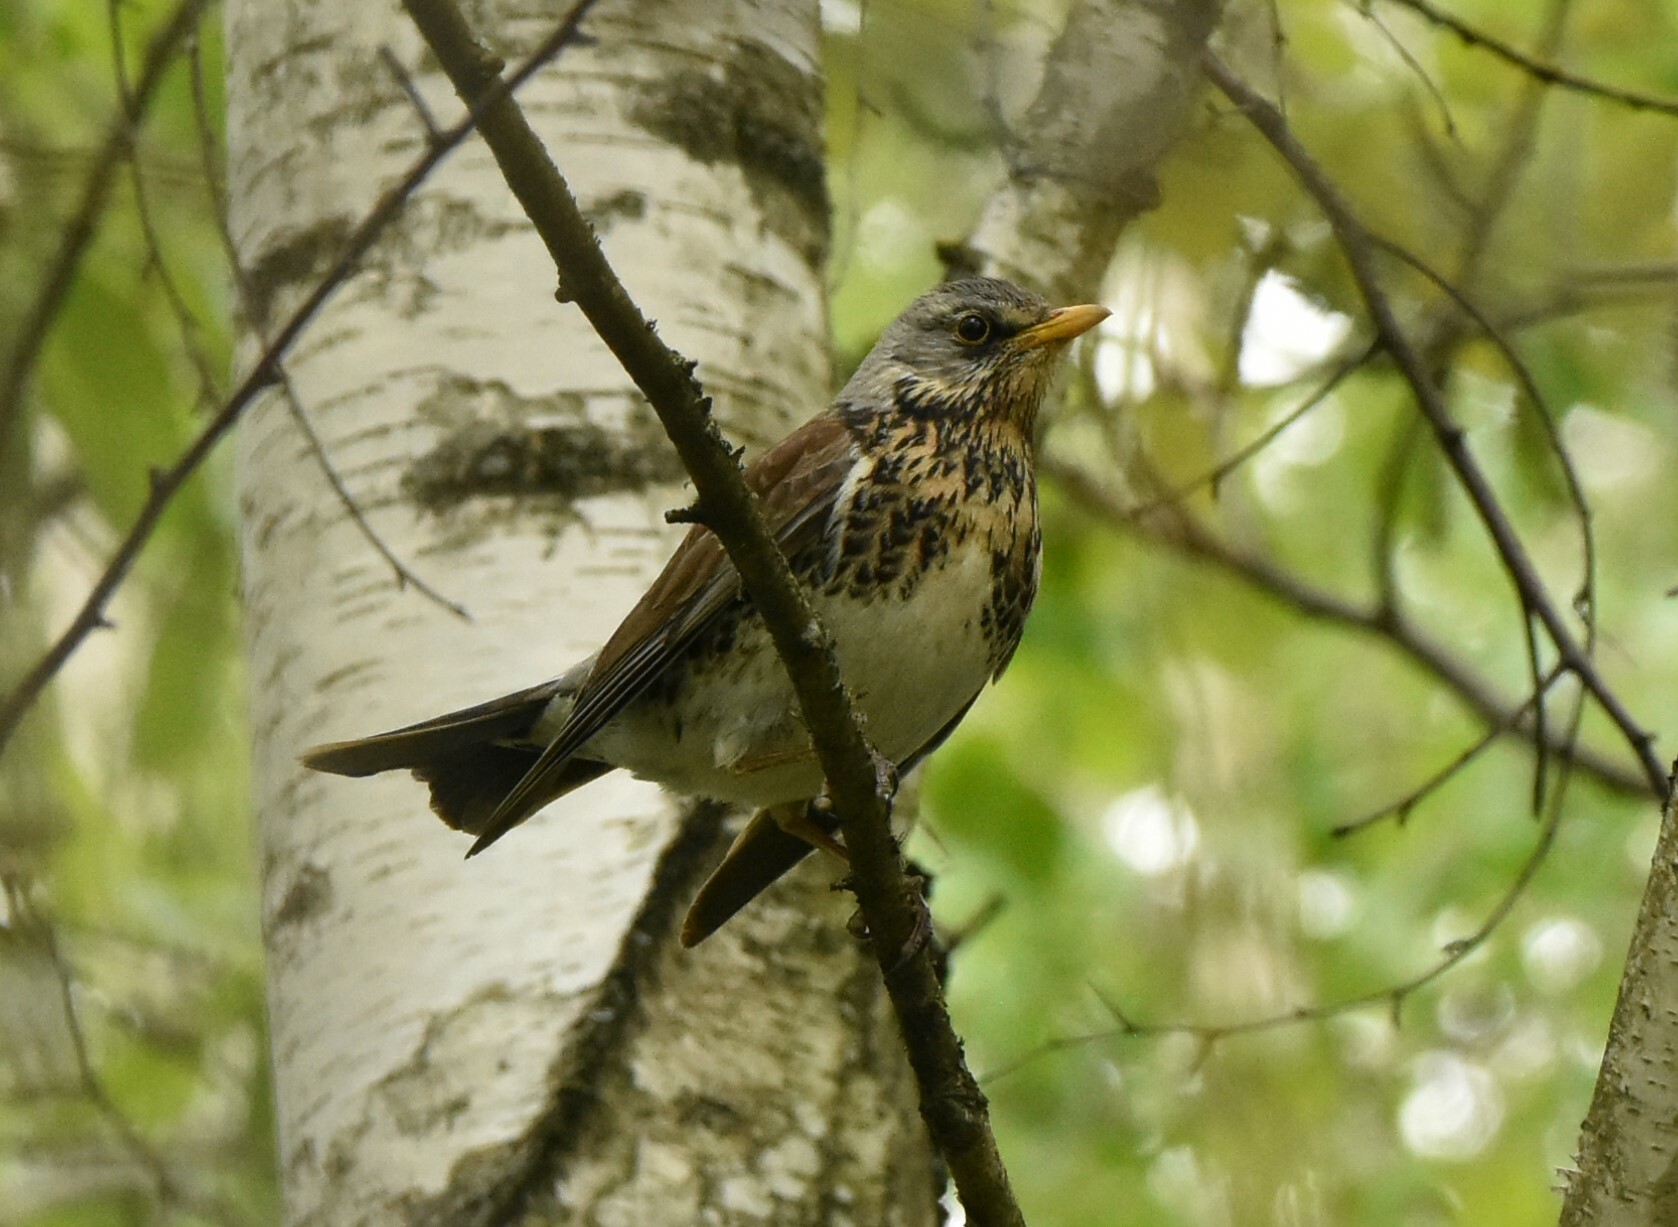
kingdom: Animalia
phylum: Chordata
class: Aves
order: Passeriformes
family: Turdidae
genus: Turdus
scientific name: Turdus pilaris
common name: Fieldfare
